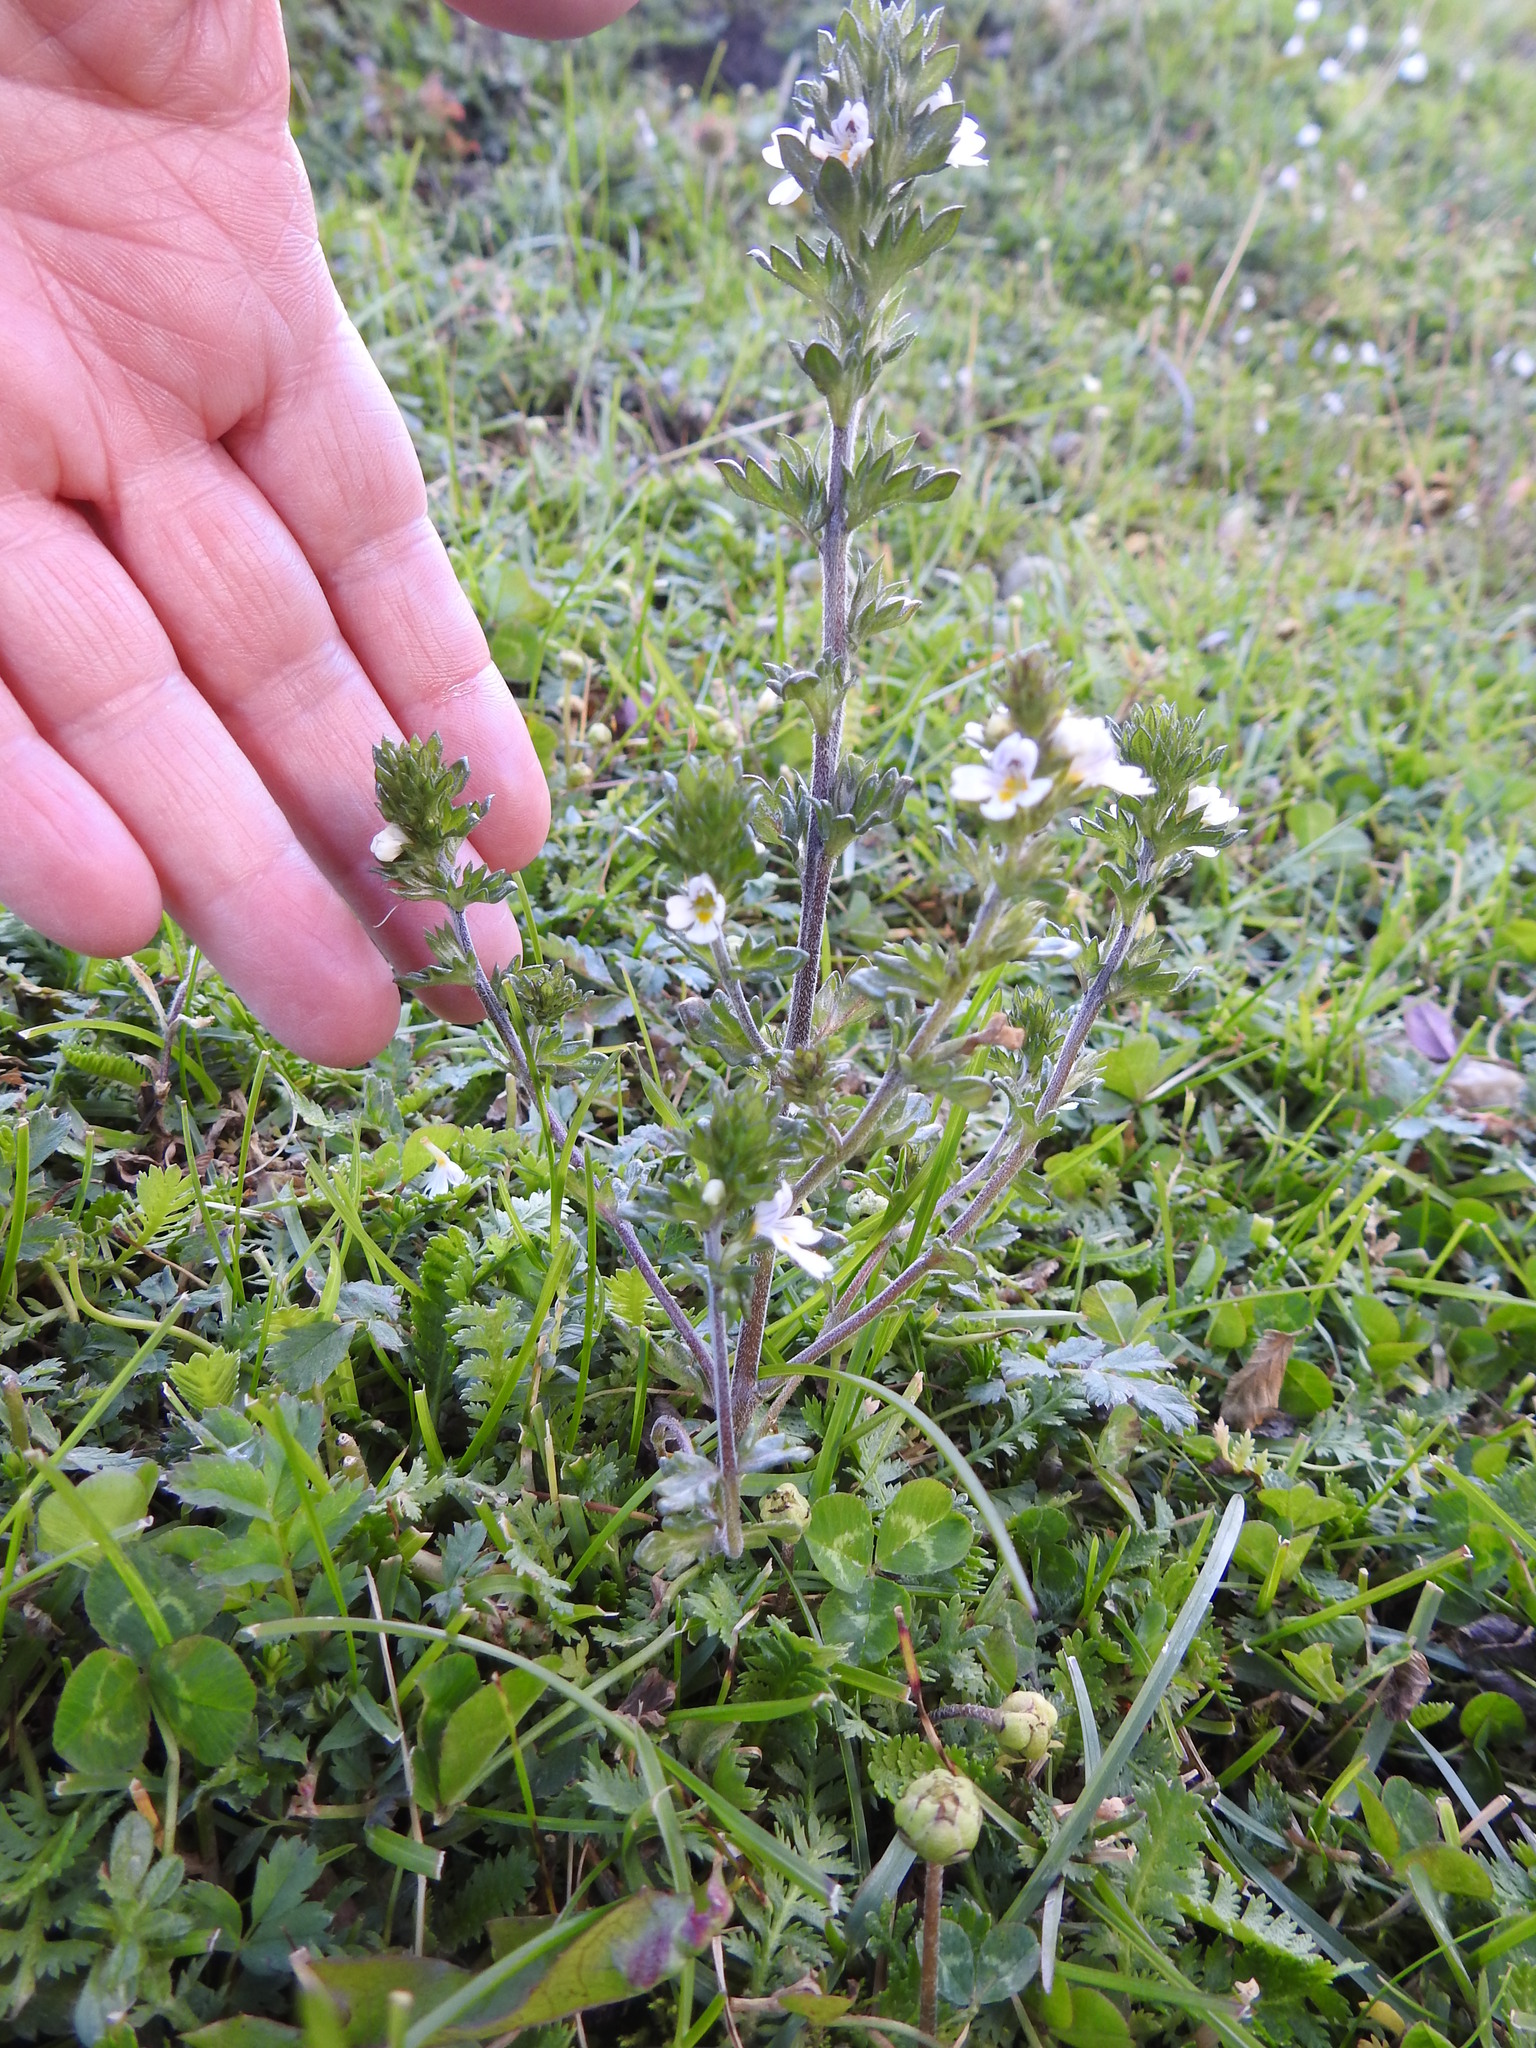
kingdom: Plantae
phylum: Tracheophyta
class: Magnoliopsida
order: Lamiales
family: Orobanchaceae
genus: Euphrasia
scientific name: Euphrasia officinalis
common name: Eyebright
